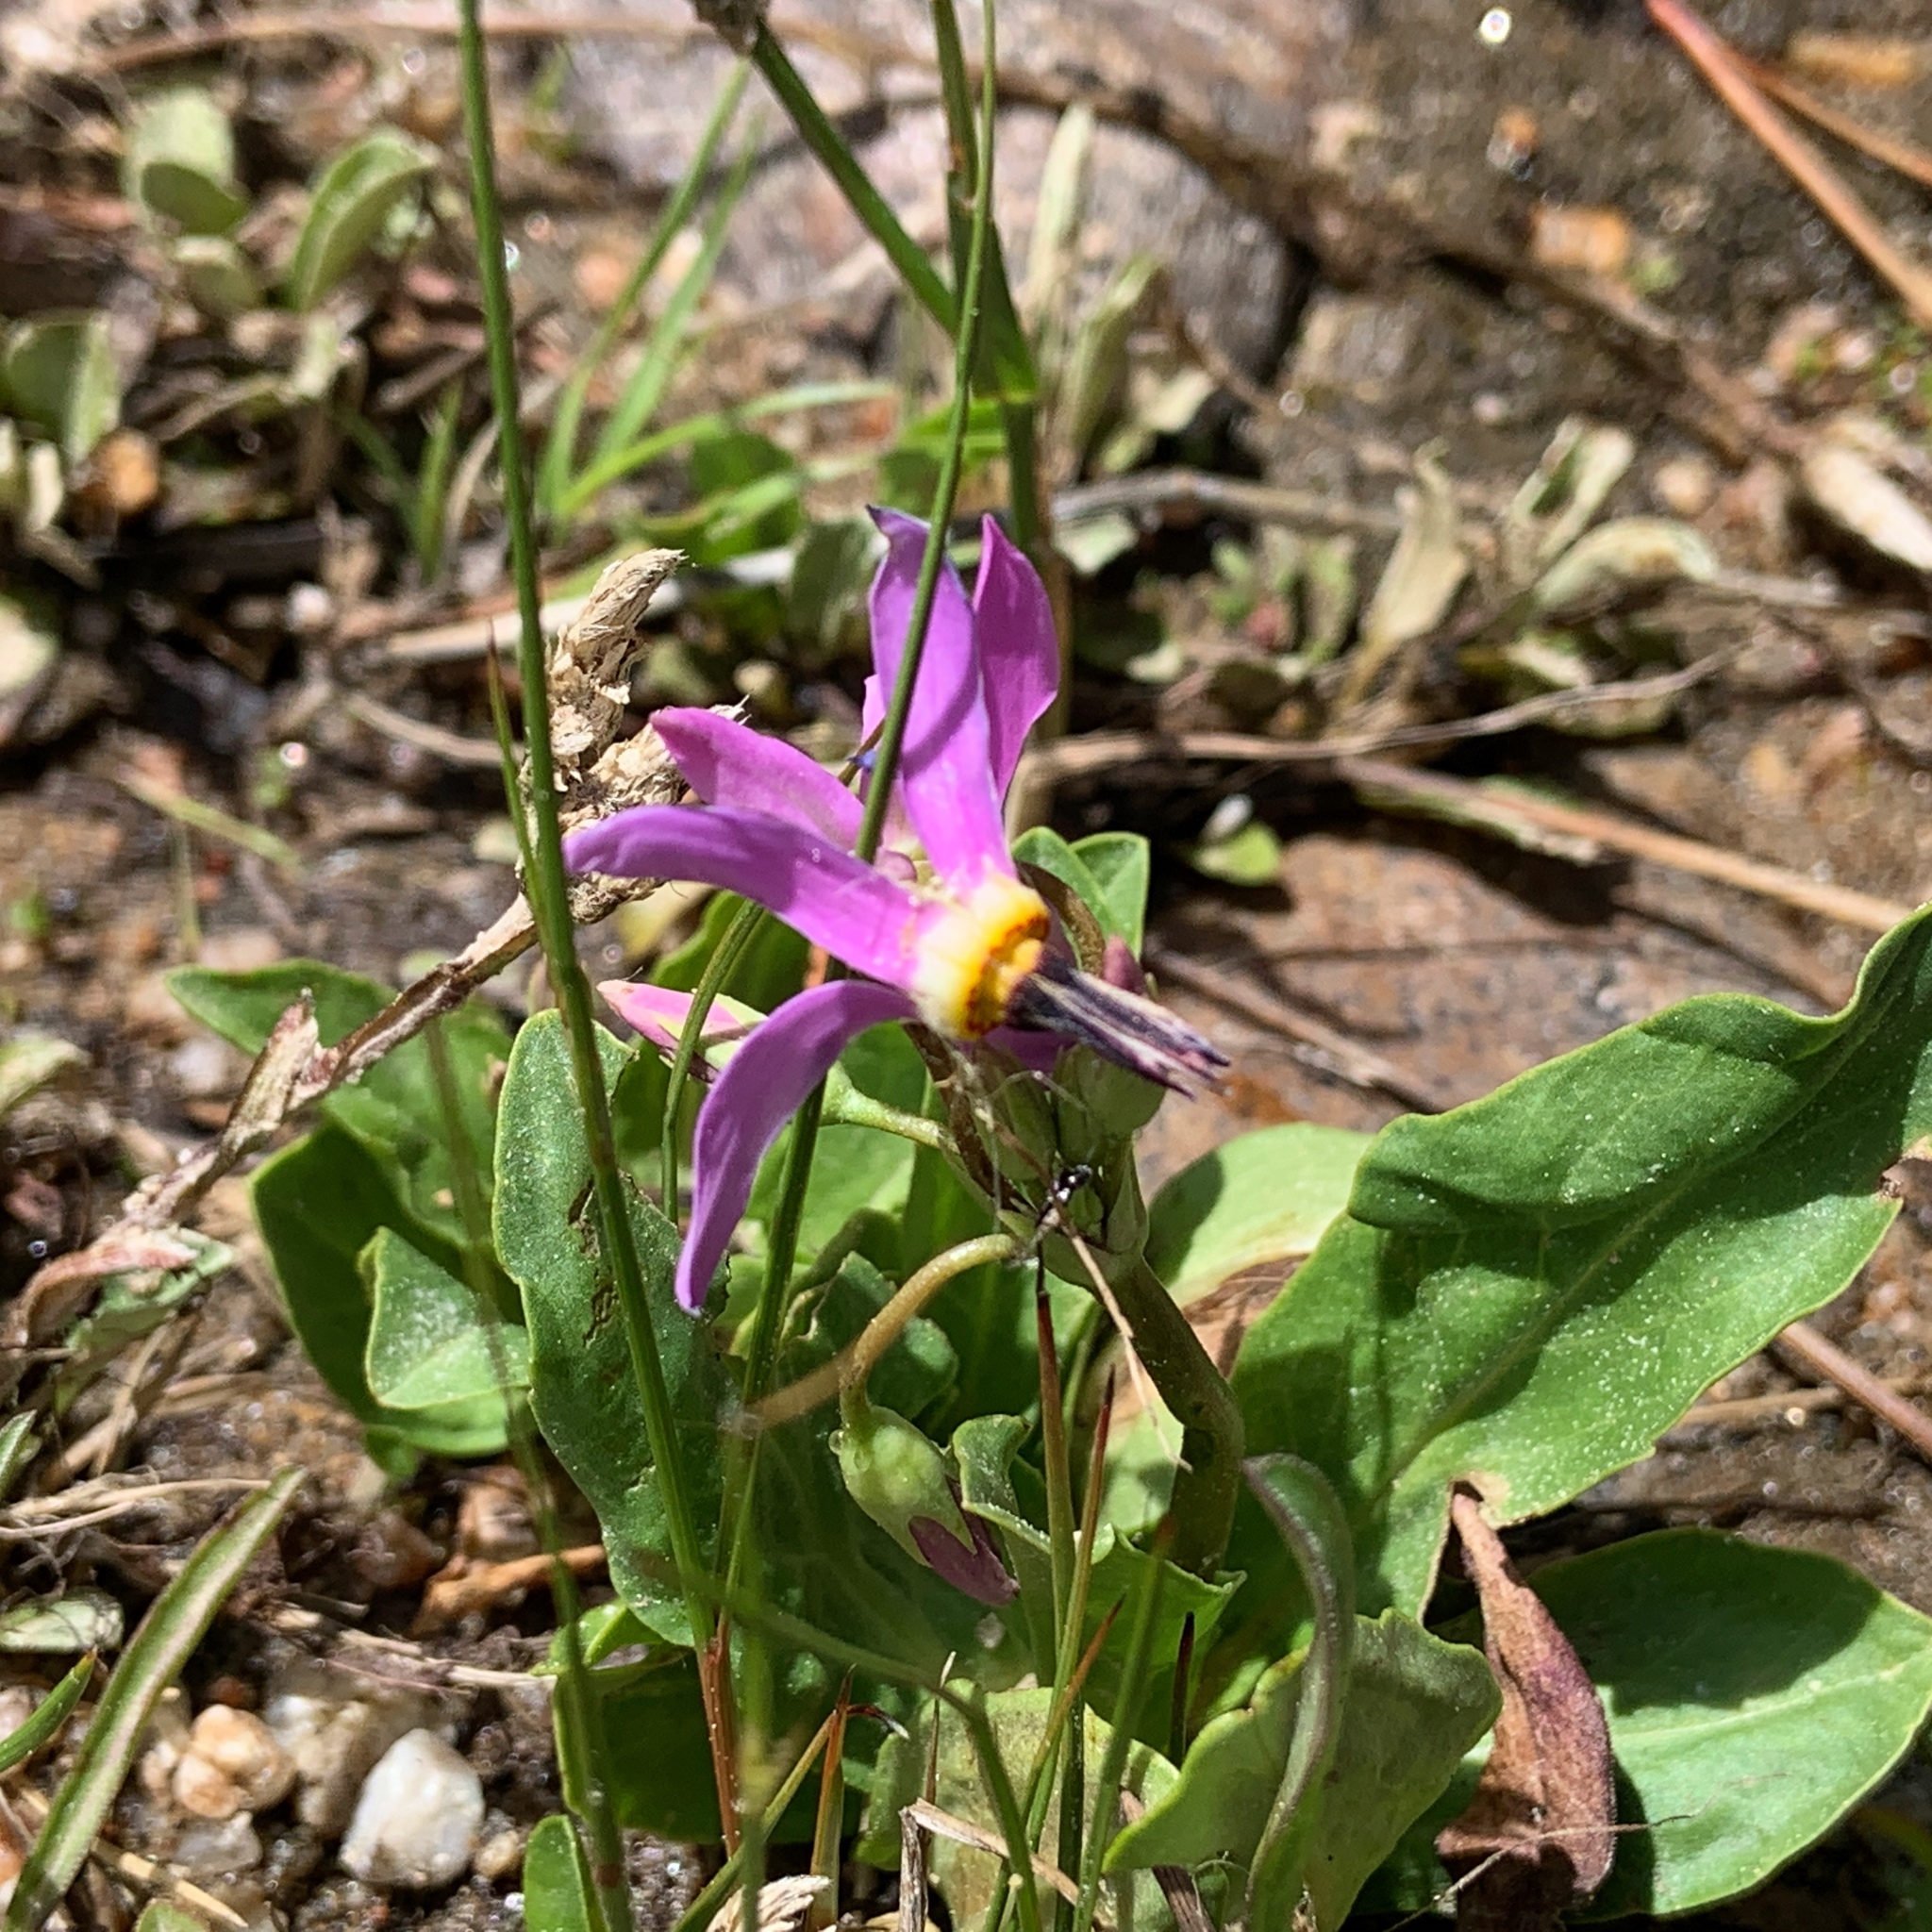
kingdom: Plantae
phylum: Tracheophyta
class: Magnoliopsida
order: Ericales
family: Primulaceae
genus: Dodecatheon
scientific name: Dodecatheon pulchellum
